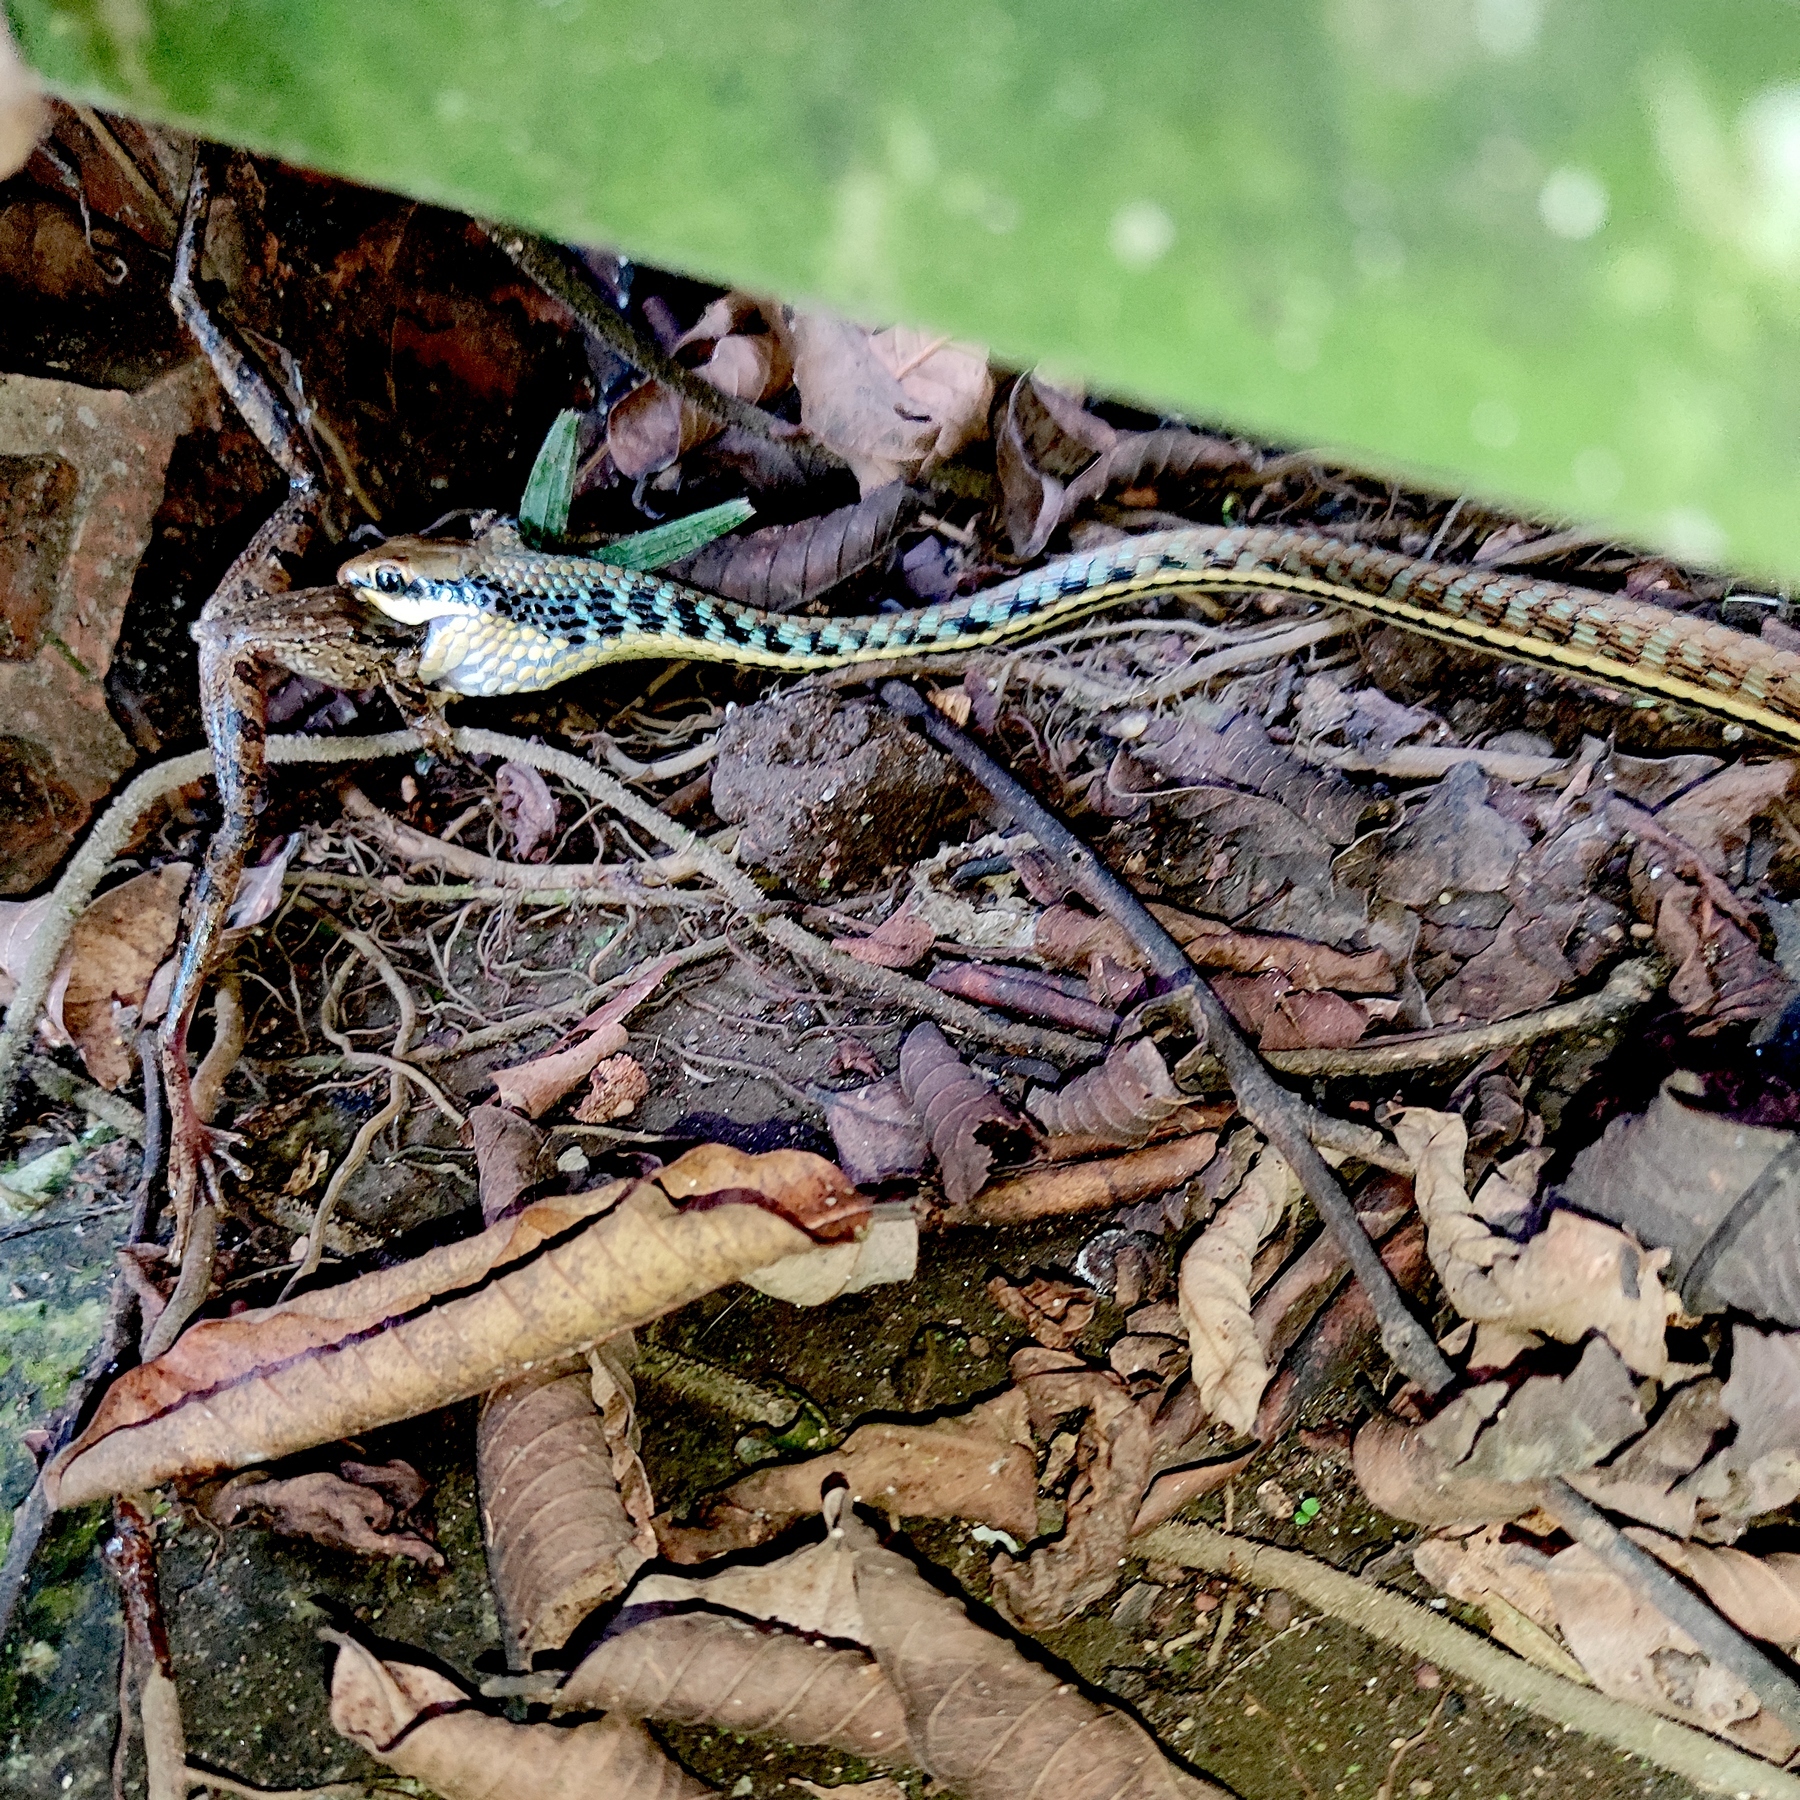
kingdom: Animalia
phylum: Chordata
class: Squamata
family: Colubridae
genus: Dendrelaphis
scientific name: Dendrelaphis pictus
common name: Indonesian bronze-back
